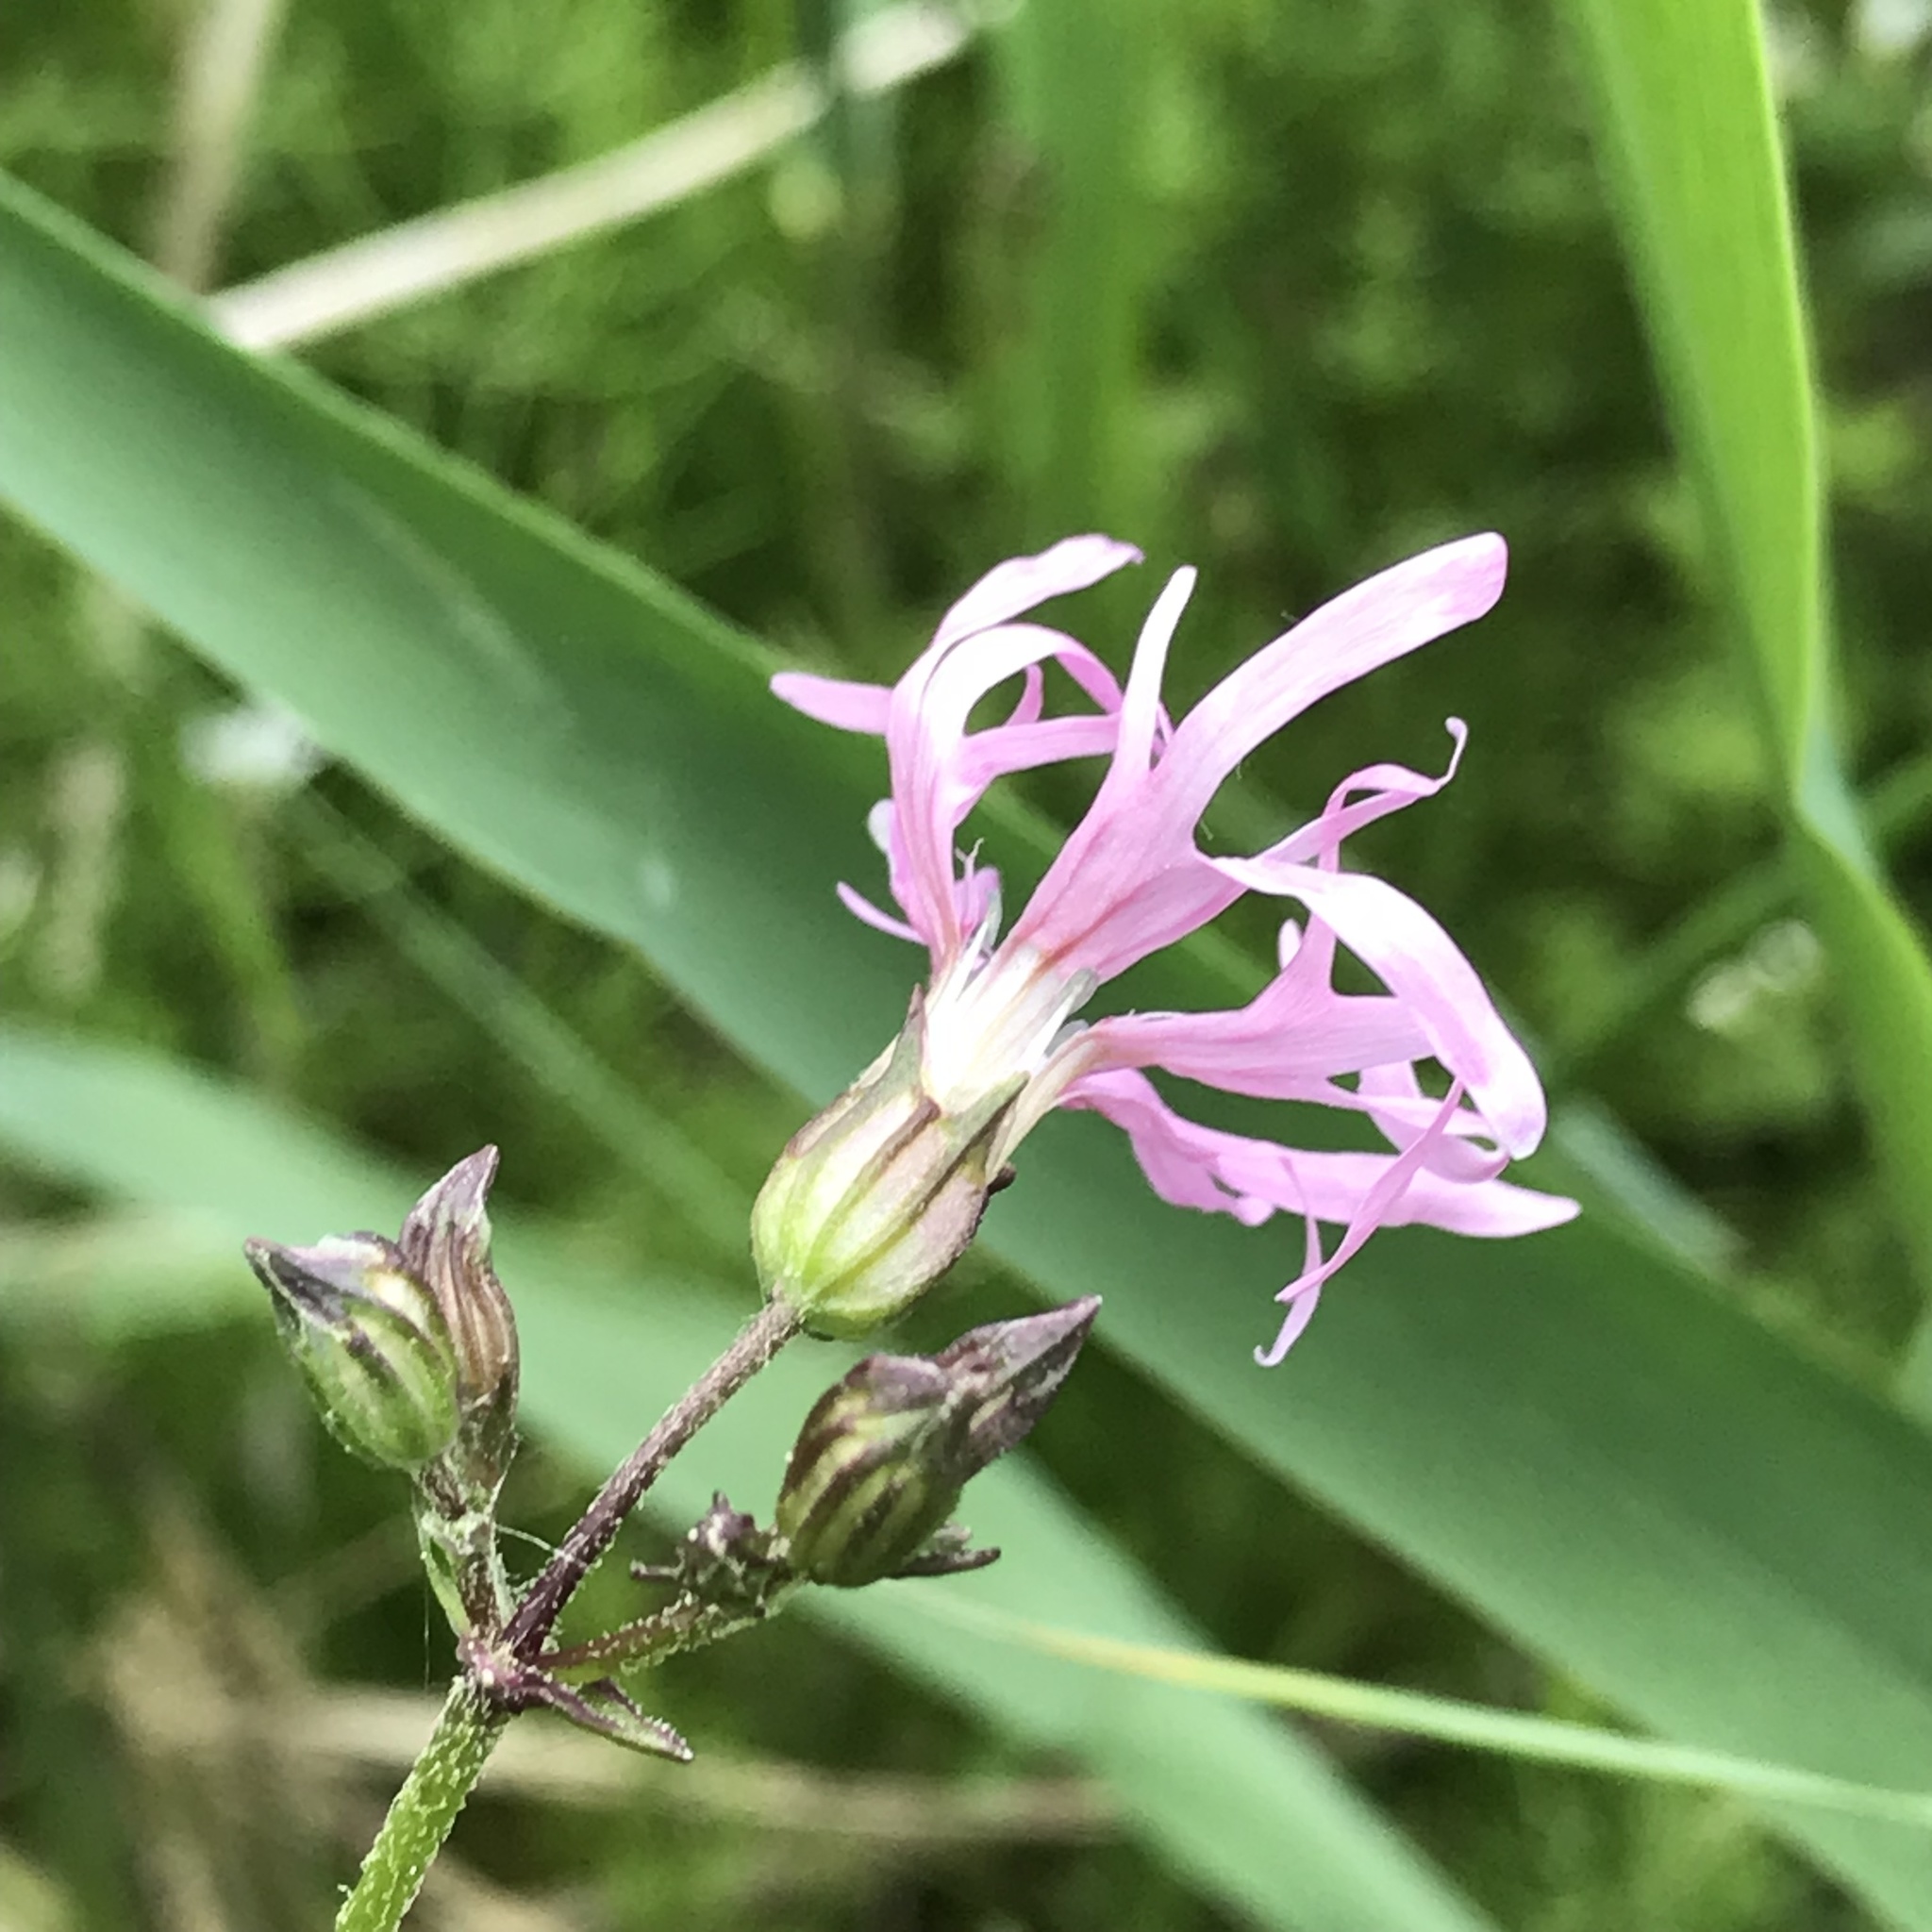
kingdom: Plantae
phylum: Tracheophyta
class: Magnoliopsida
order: Caryophyllales
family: Caryophyllaceae
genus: Silene
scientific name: Silene flos-cuculi
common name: Ragged-robin
